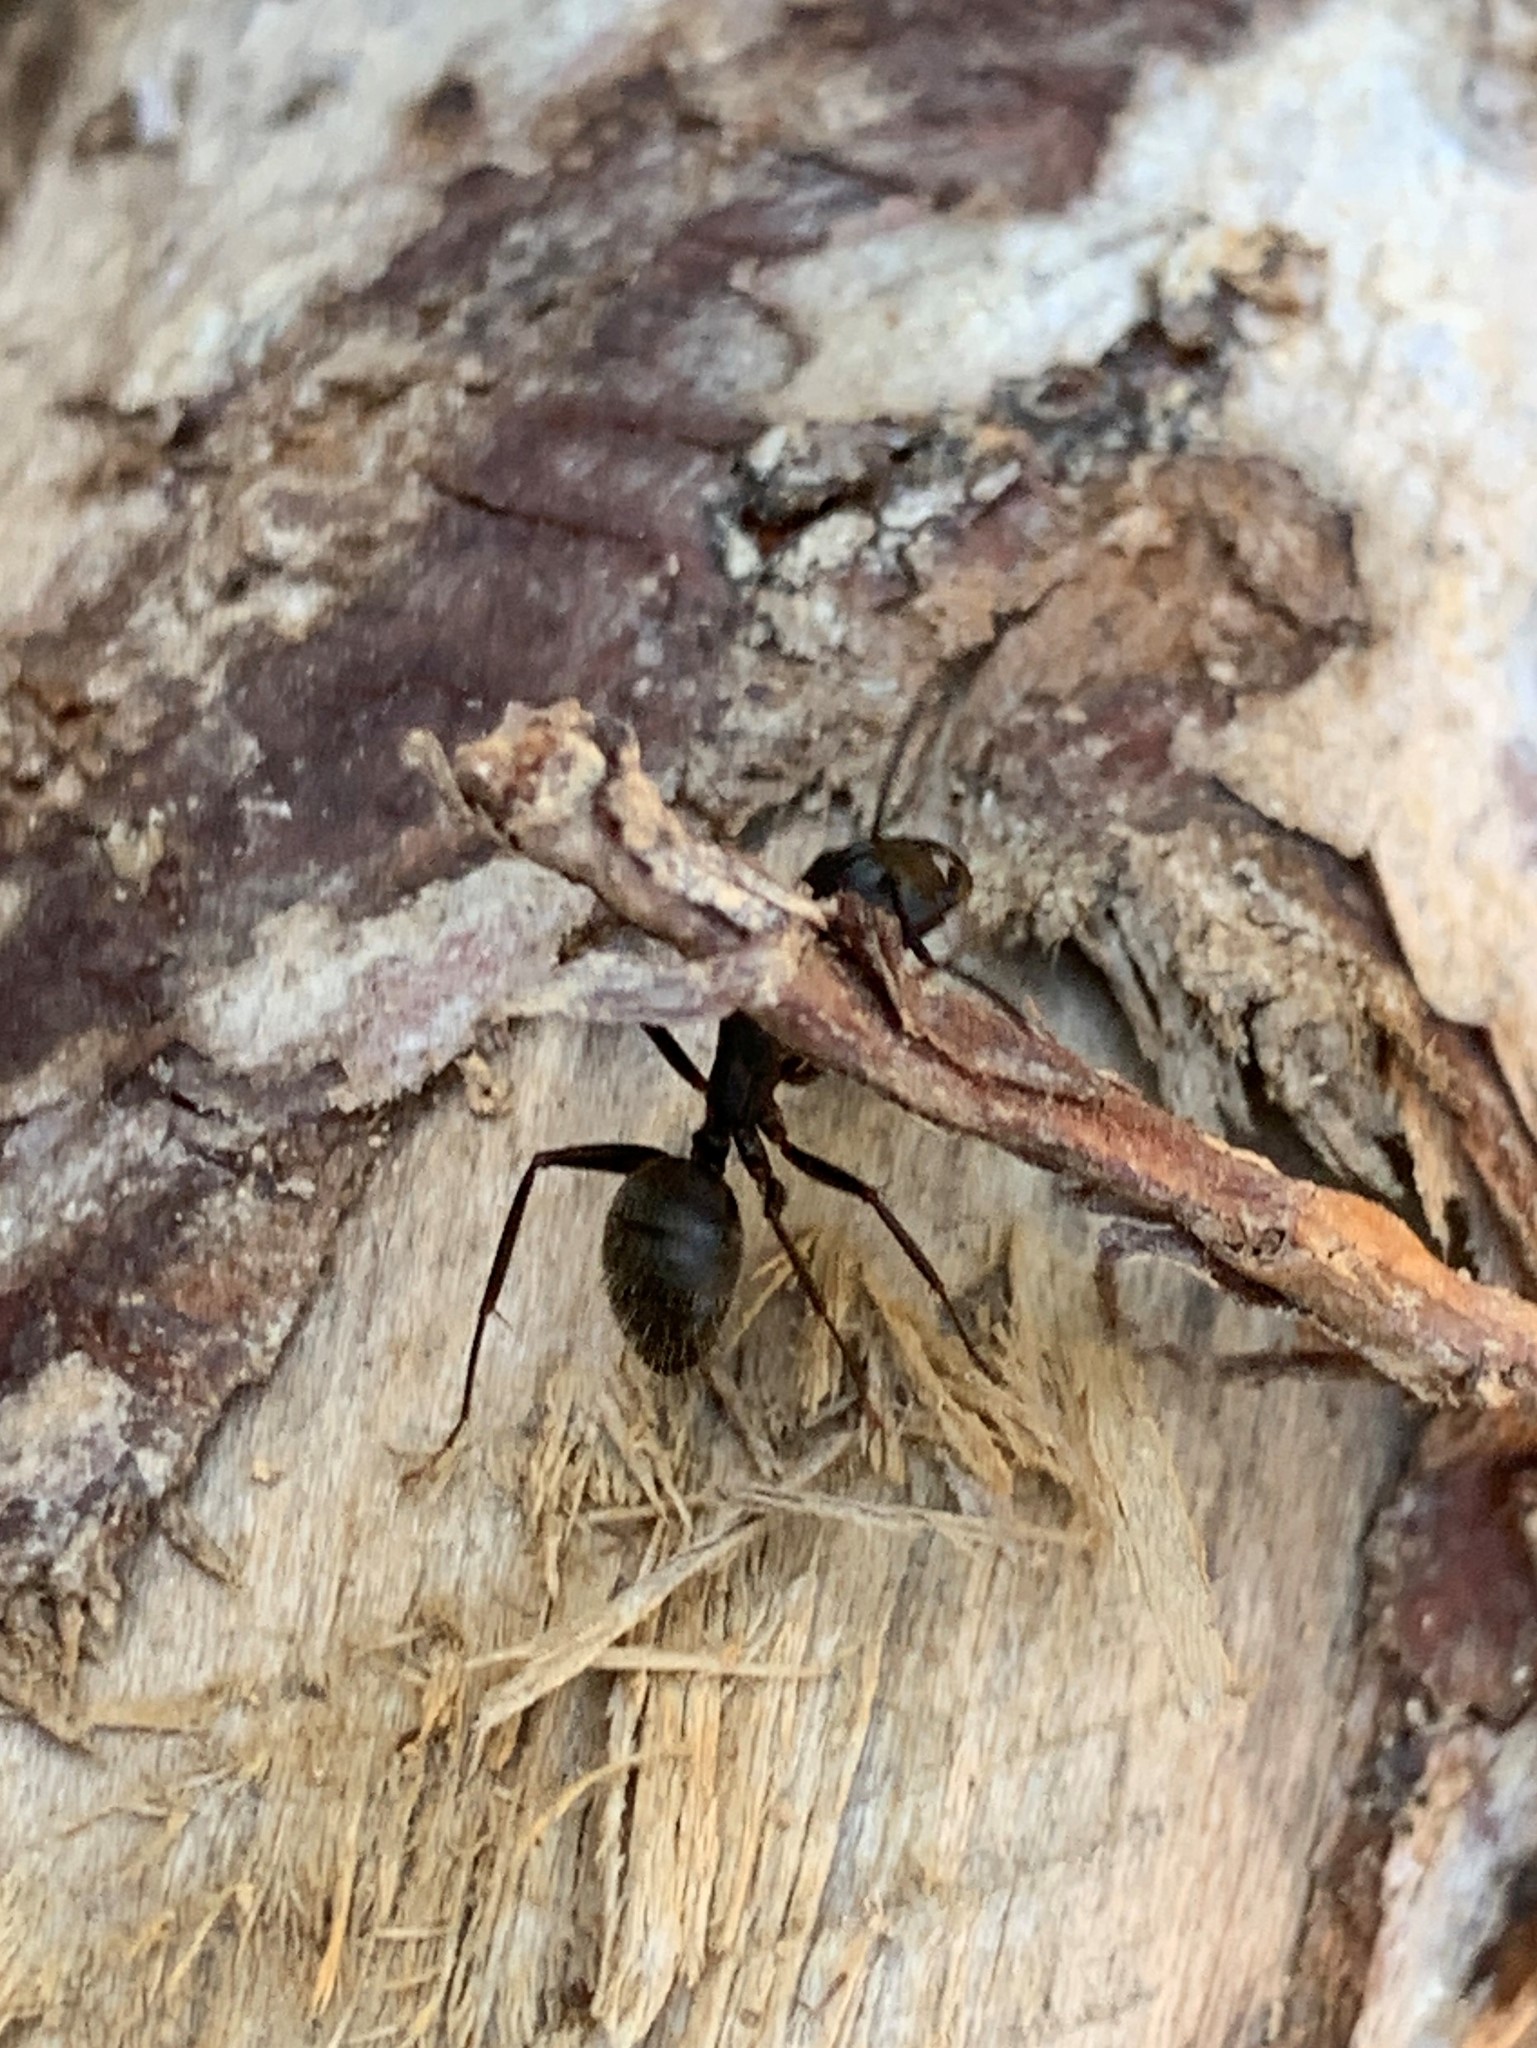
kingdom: Animalia
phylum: Arthropoda
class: Insecta
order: Hymenoptera
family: Formicidae
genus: Camponotus
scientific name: Camponotus pennsylvanicus
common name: Black carpenter ant
